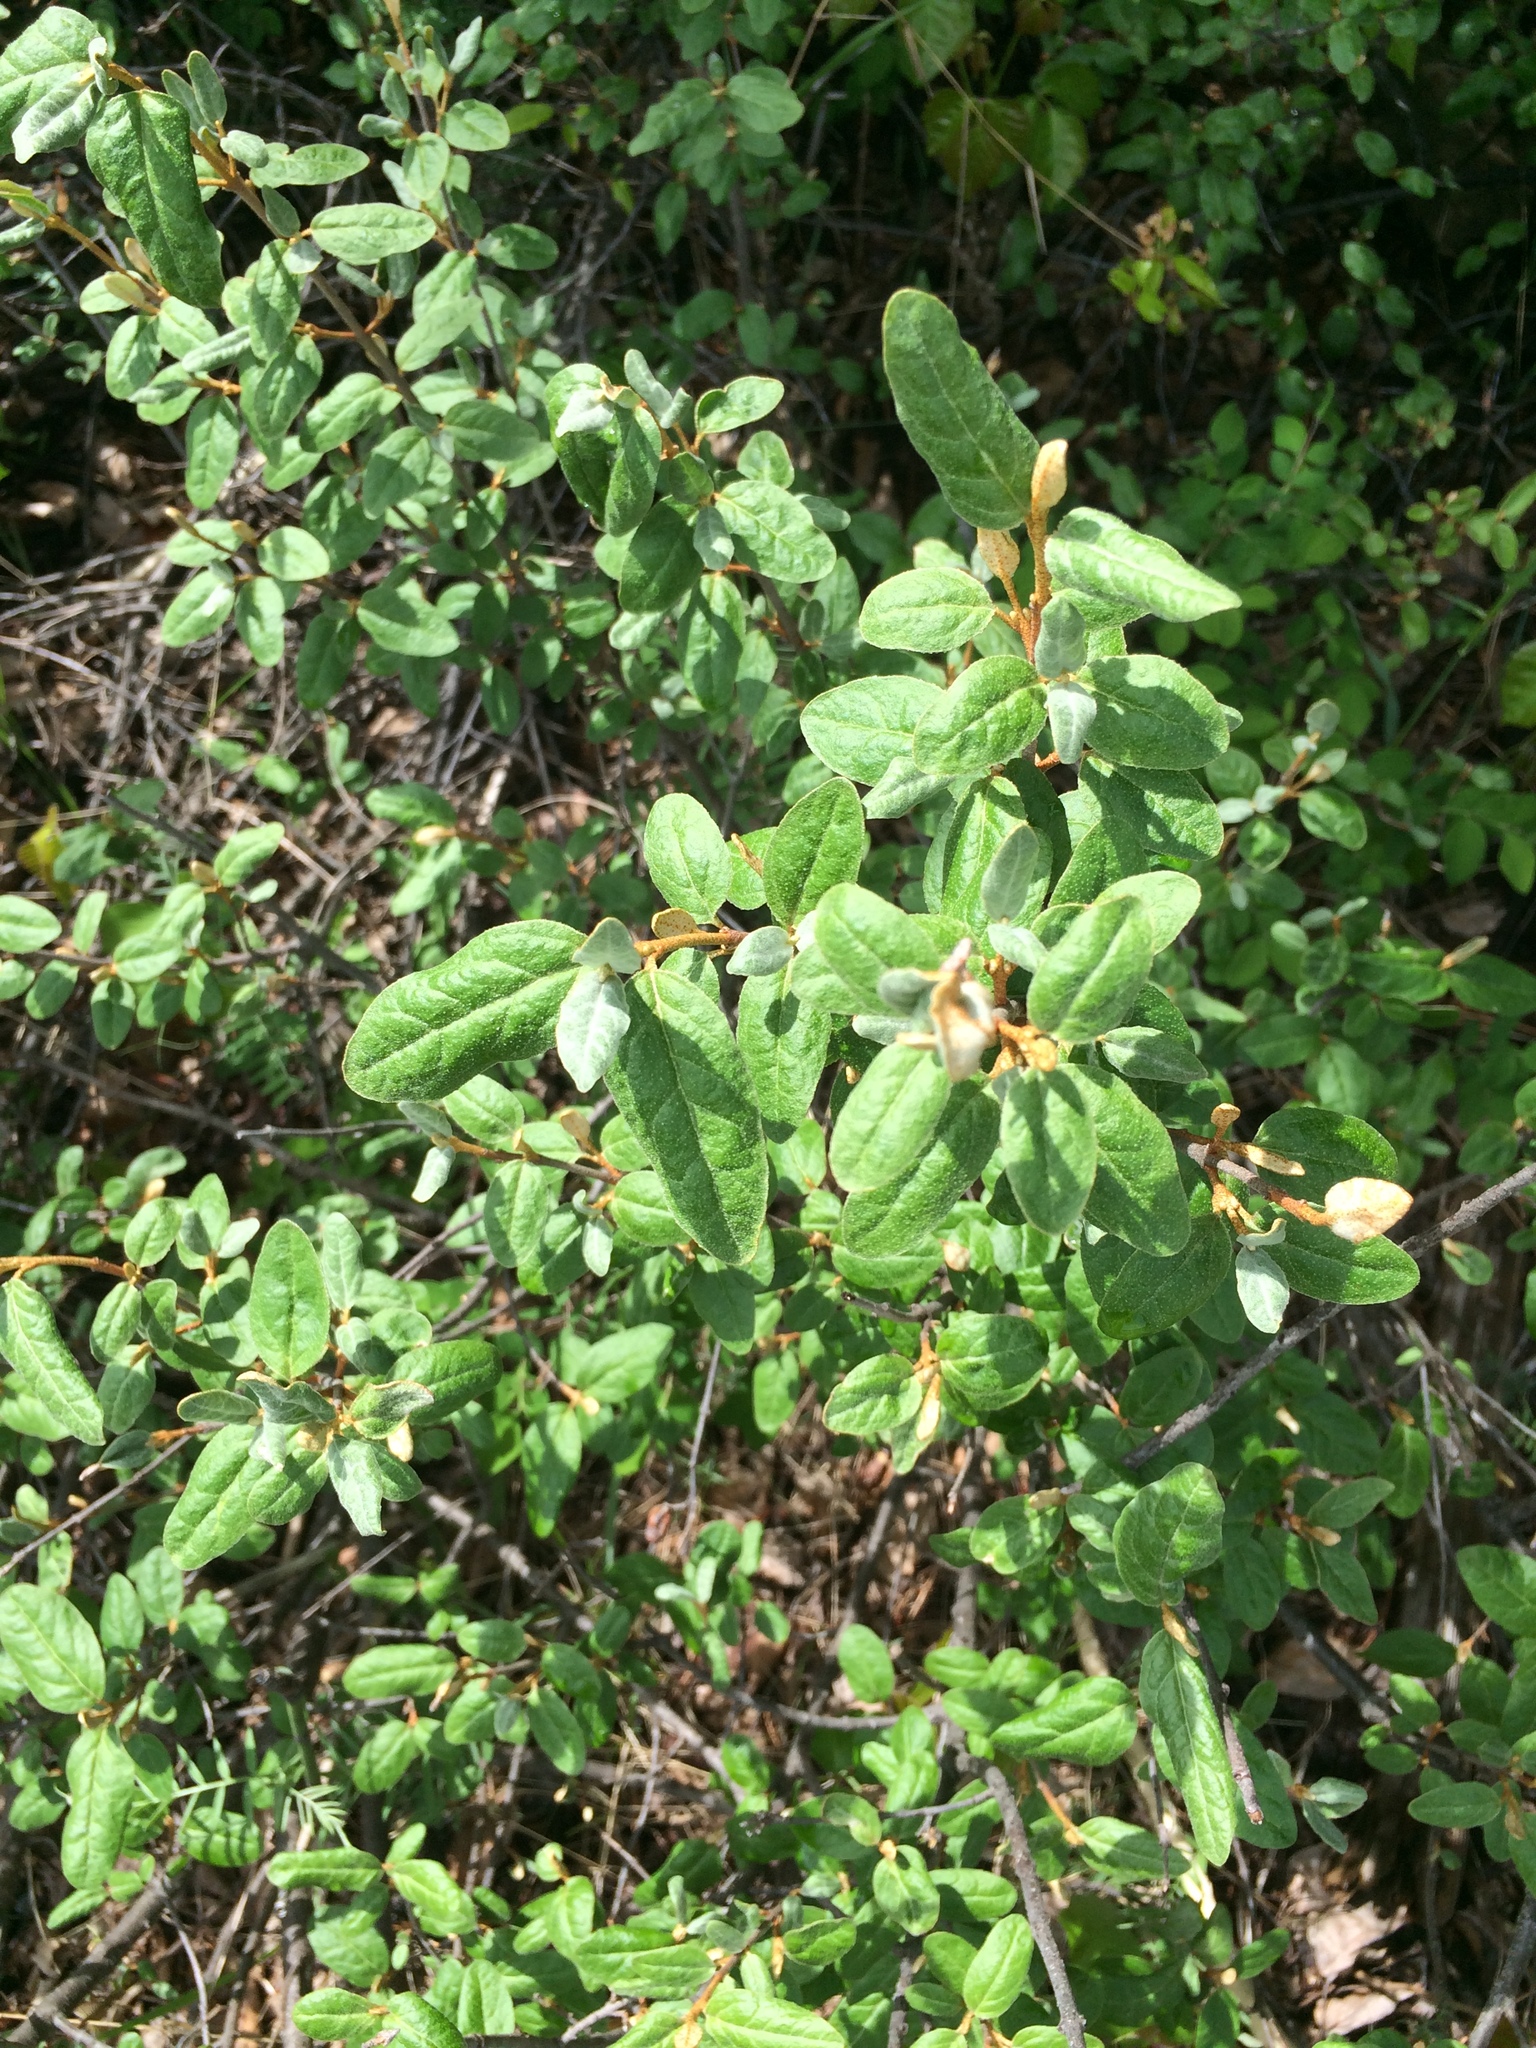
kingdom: Plantae
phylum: Tracheophyta
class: Magnoliopsida
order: Rosales
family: Elaeagnaceae
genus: Shepherdia
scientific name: Shepherdia canadensis
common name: Soapberry
